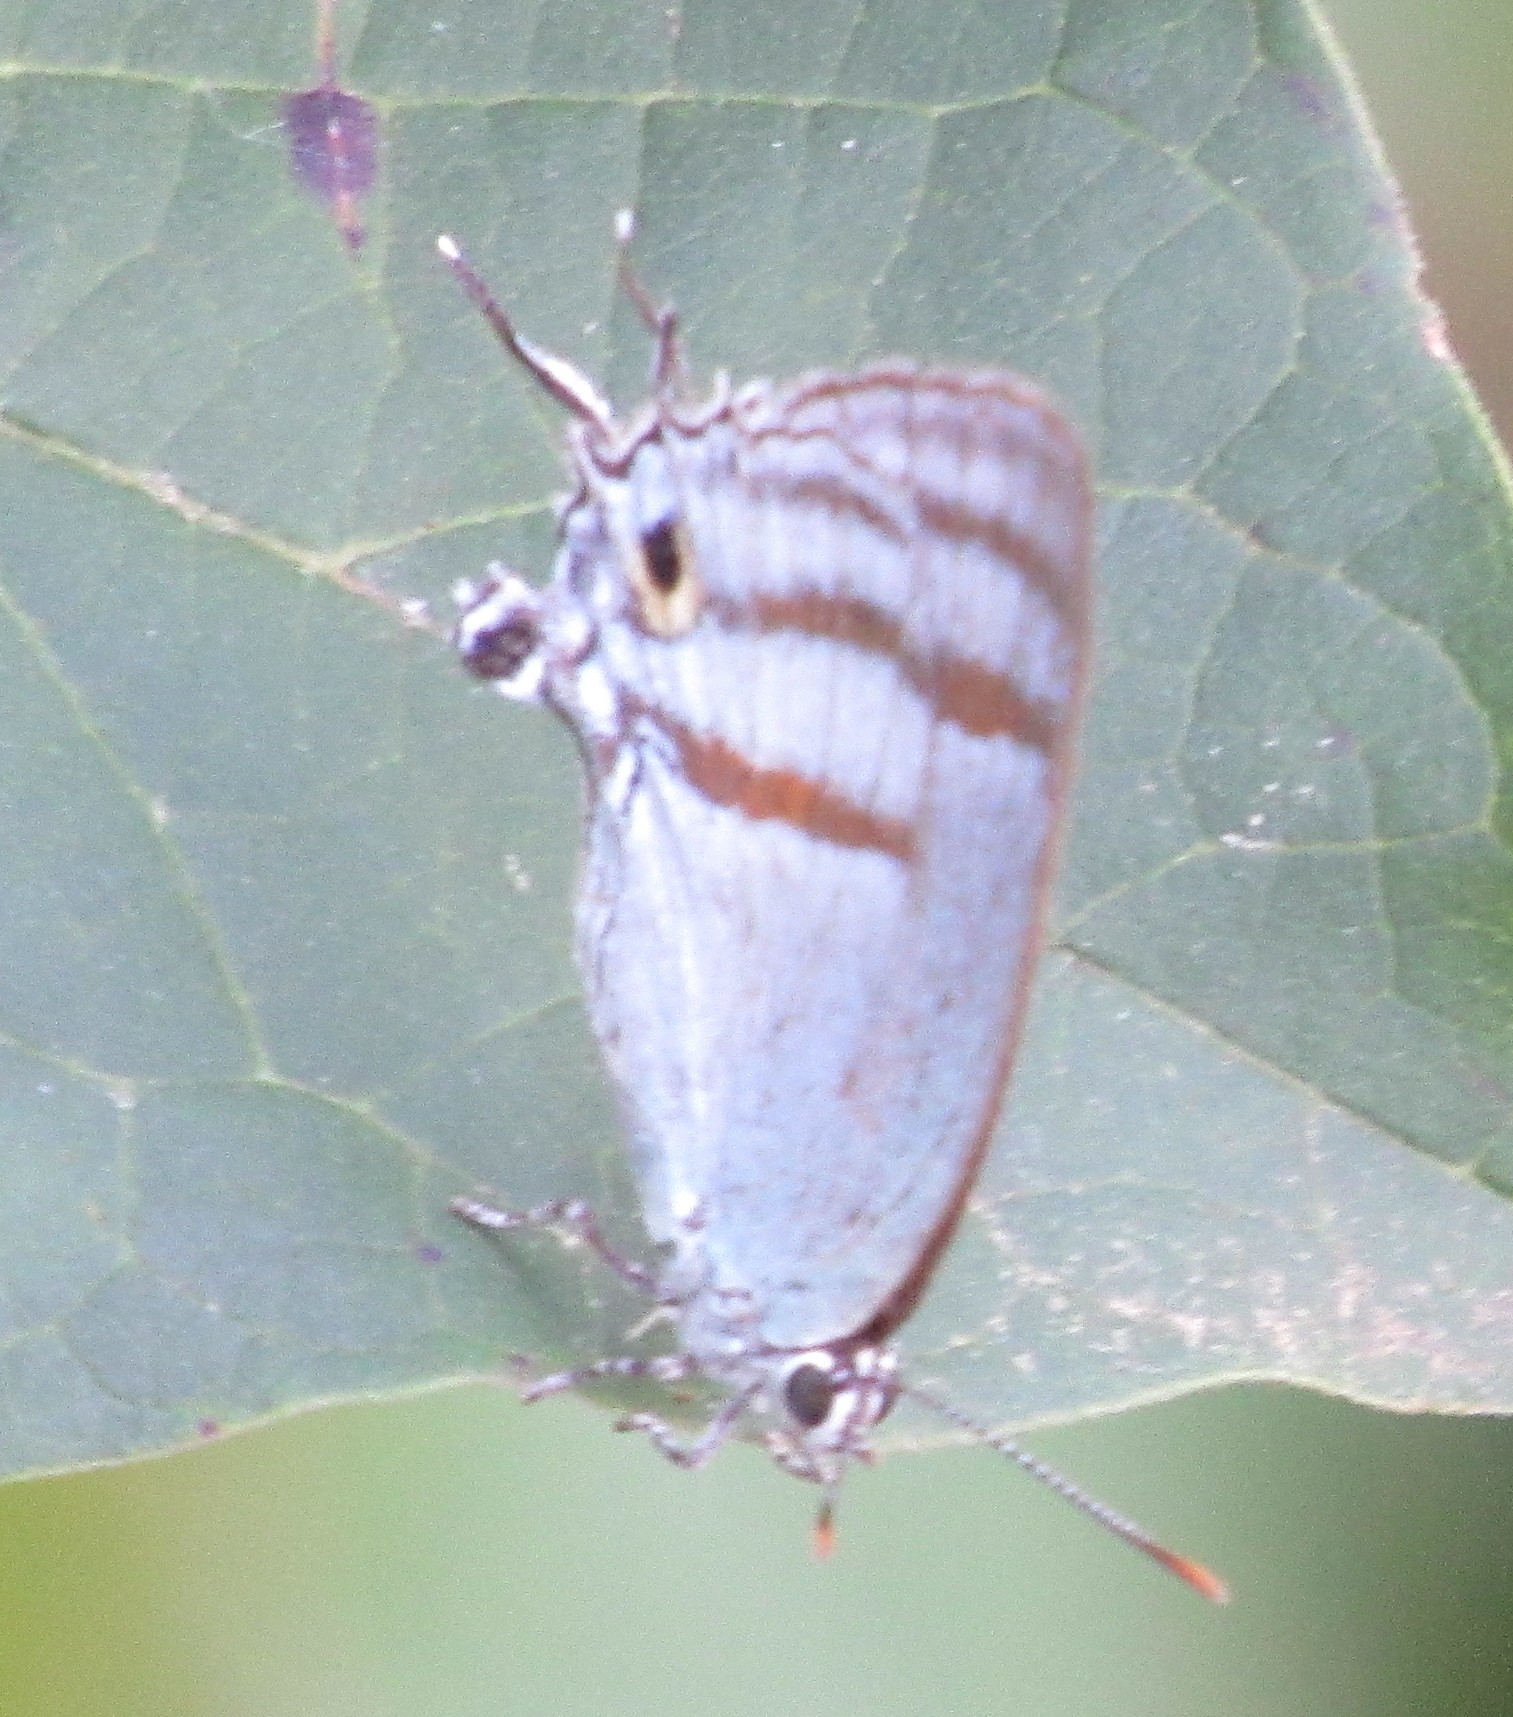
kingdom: Animalia
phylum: Arthropoda
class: Insecta
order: Lepidoptera
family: Lycaenidae
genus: Paiwarria
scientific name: Paiwarria venulius
